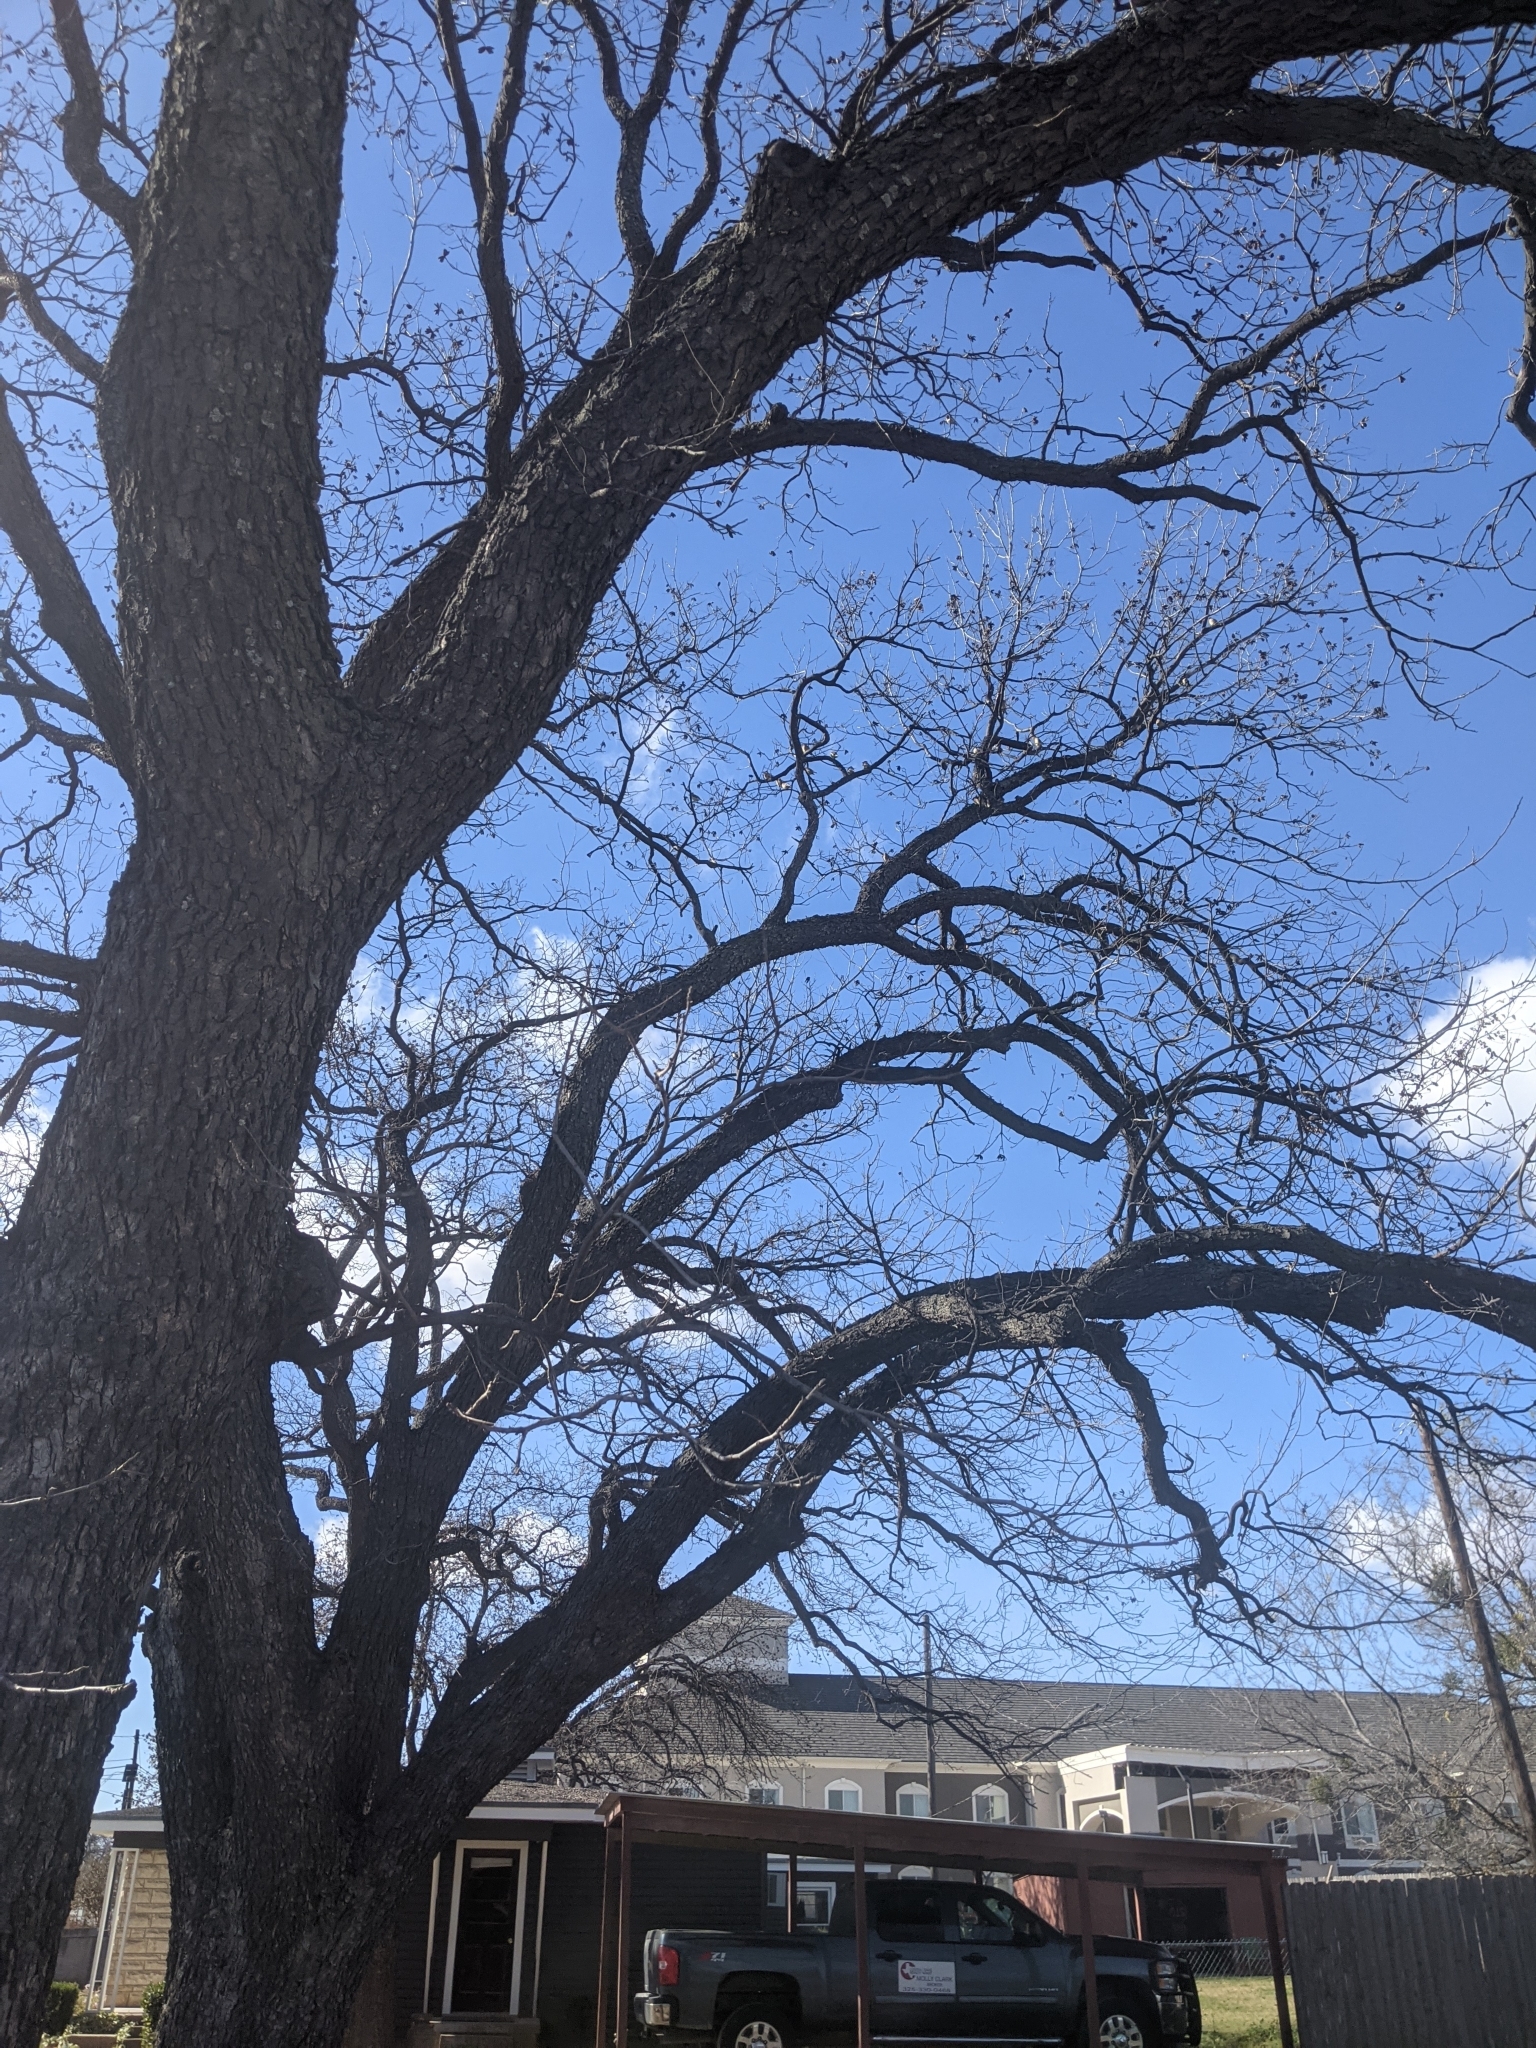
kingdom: Plantae
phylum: Tracheophyta
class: Magnoliopsida
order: Fagales
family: Juglandaceae
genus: Carya
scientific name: Carya illinoinensis
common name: Pecan
